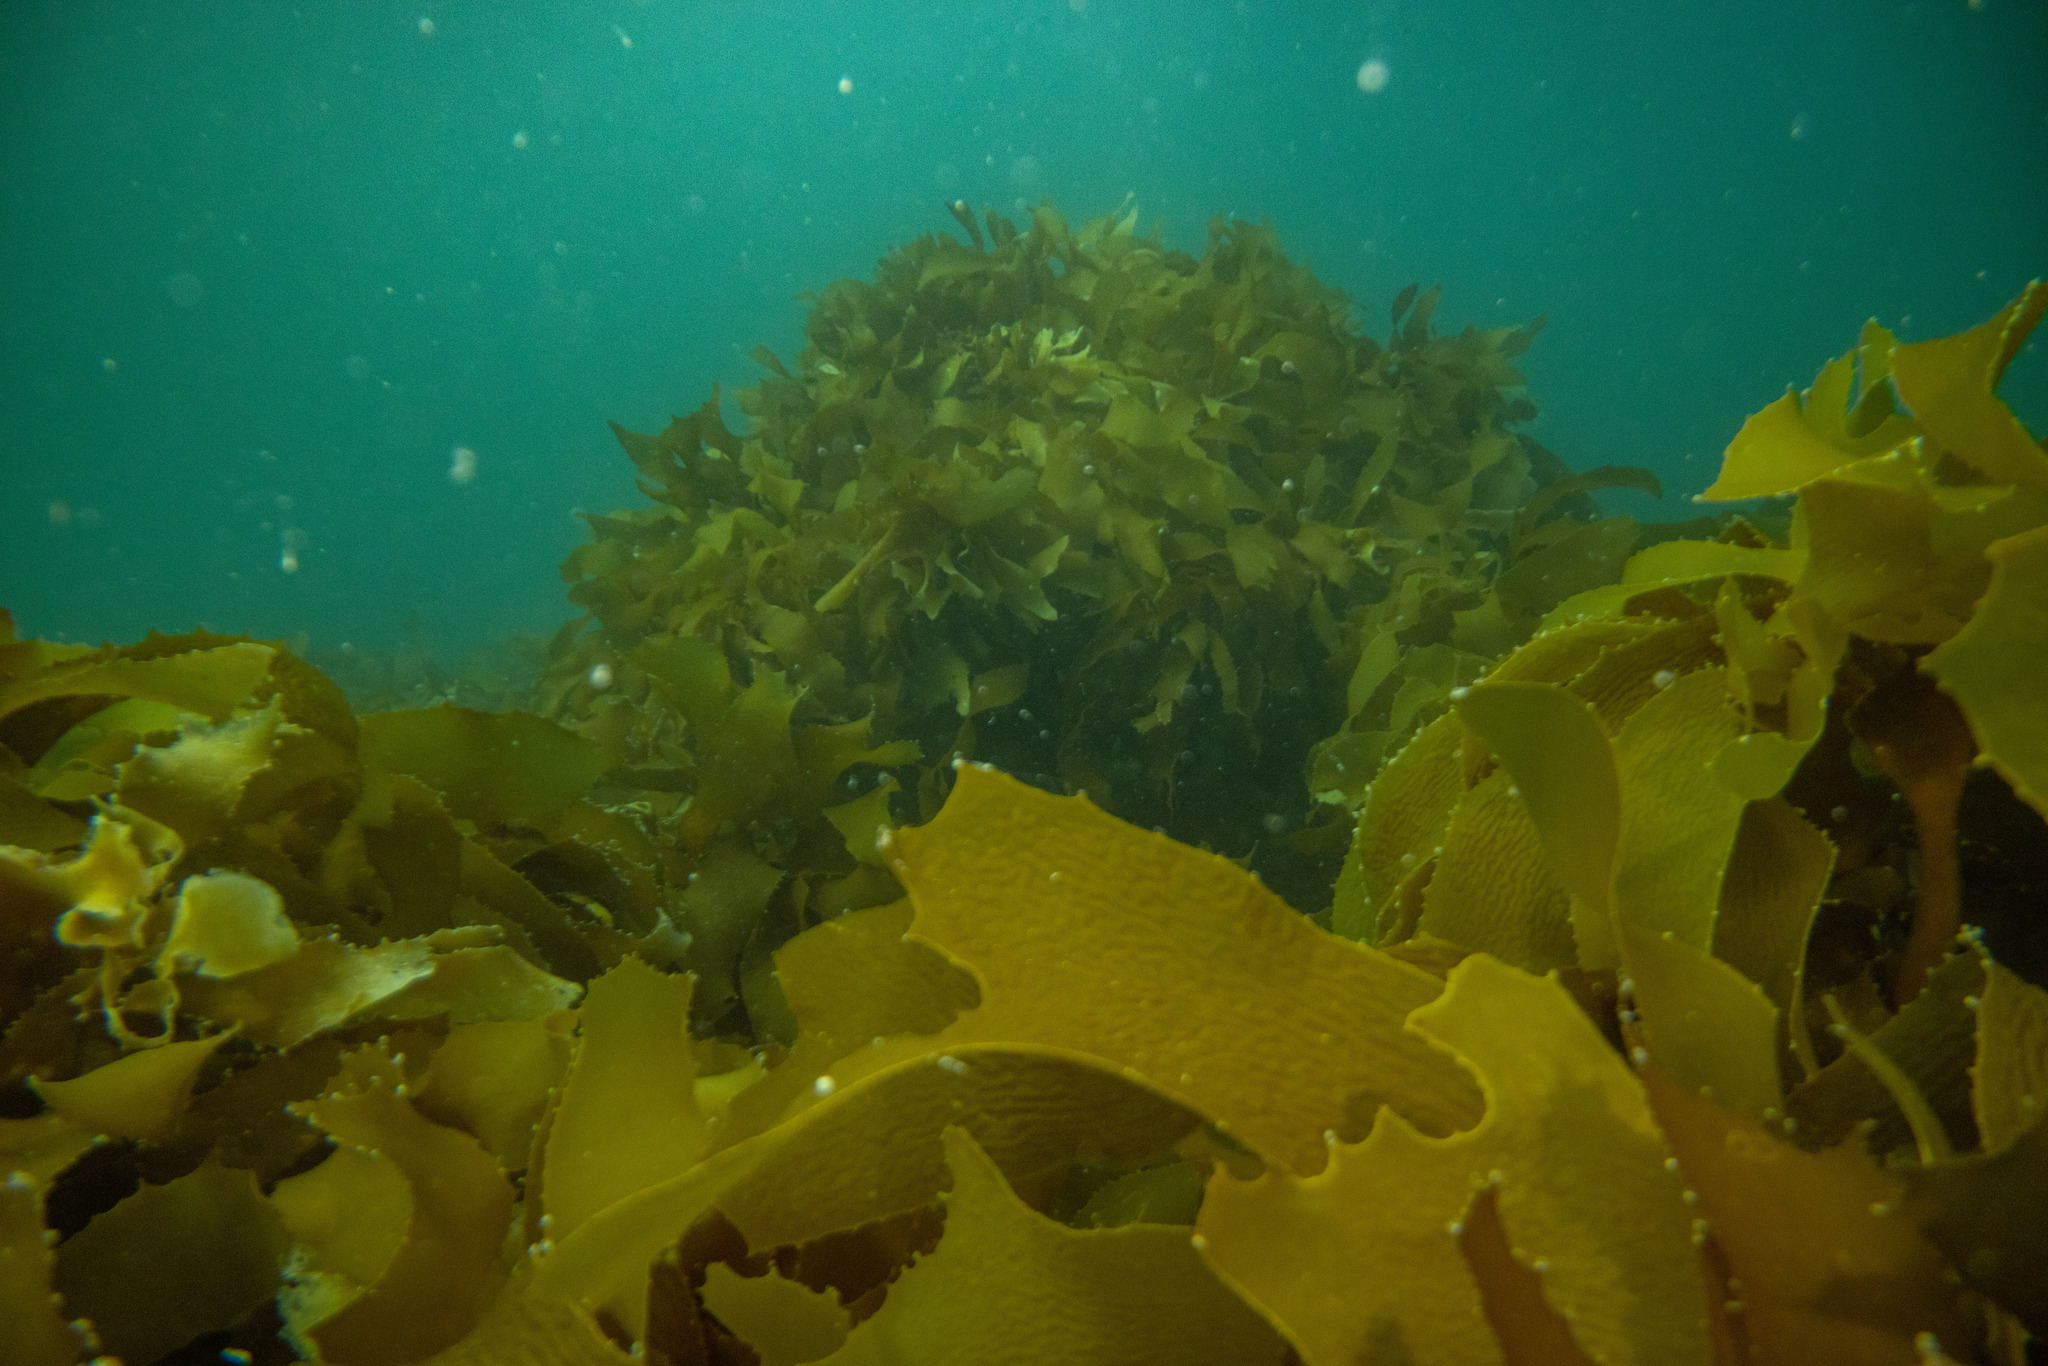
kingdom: Chromista
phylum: Ochrophyta
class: Phaeophyceae
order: Laminariales
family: Lessoniaceae
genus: Ecklonia
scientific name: Ecklonia radiata
